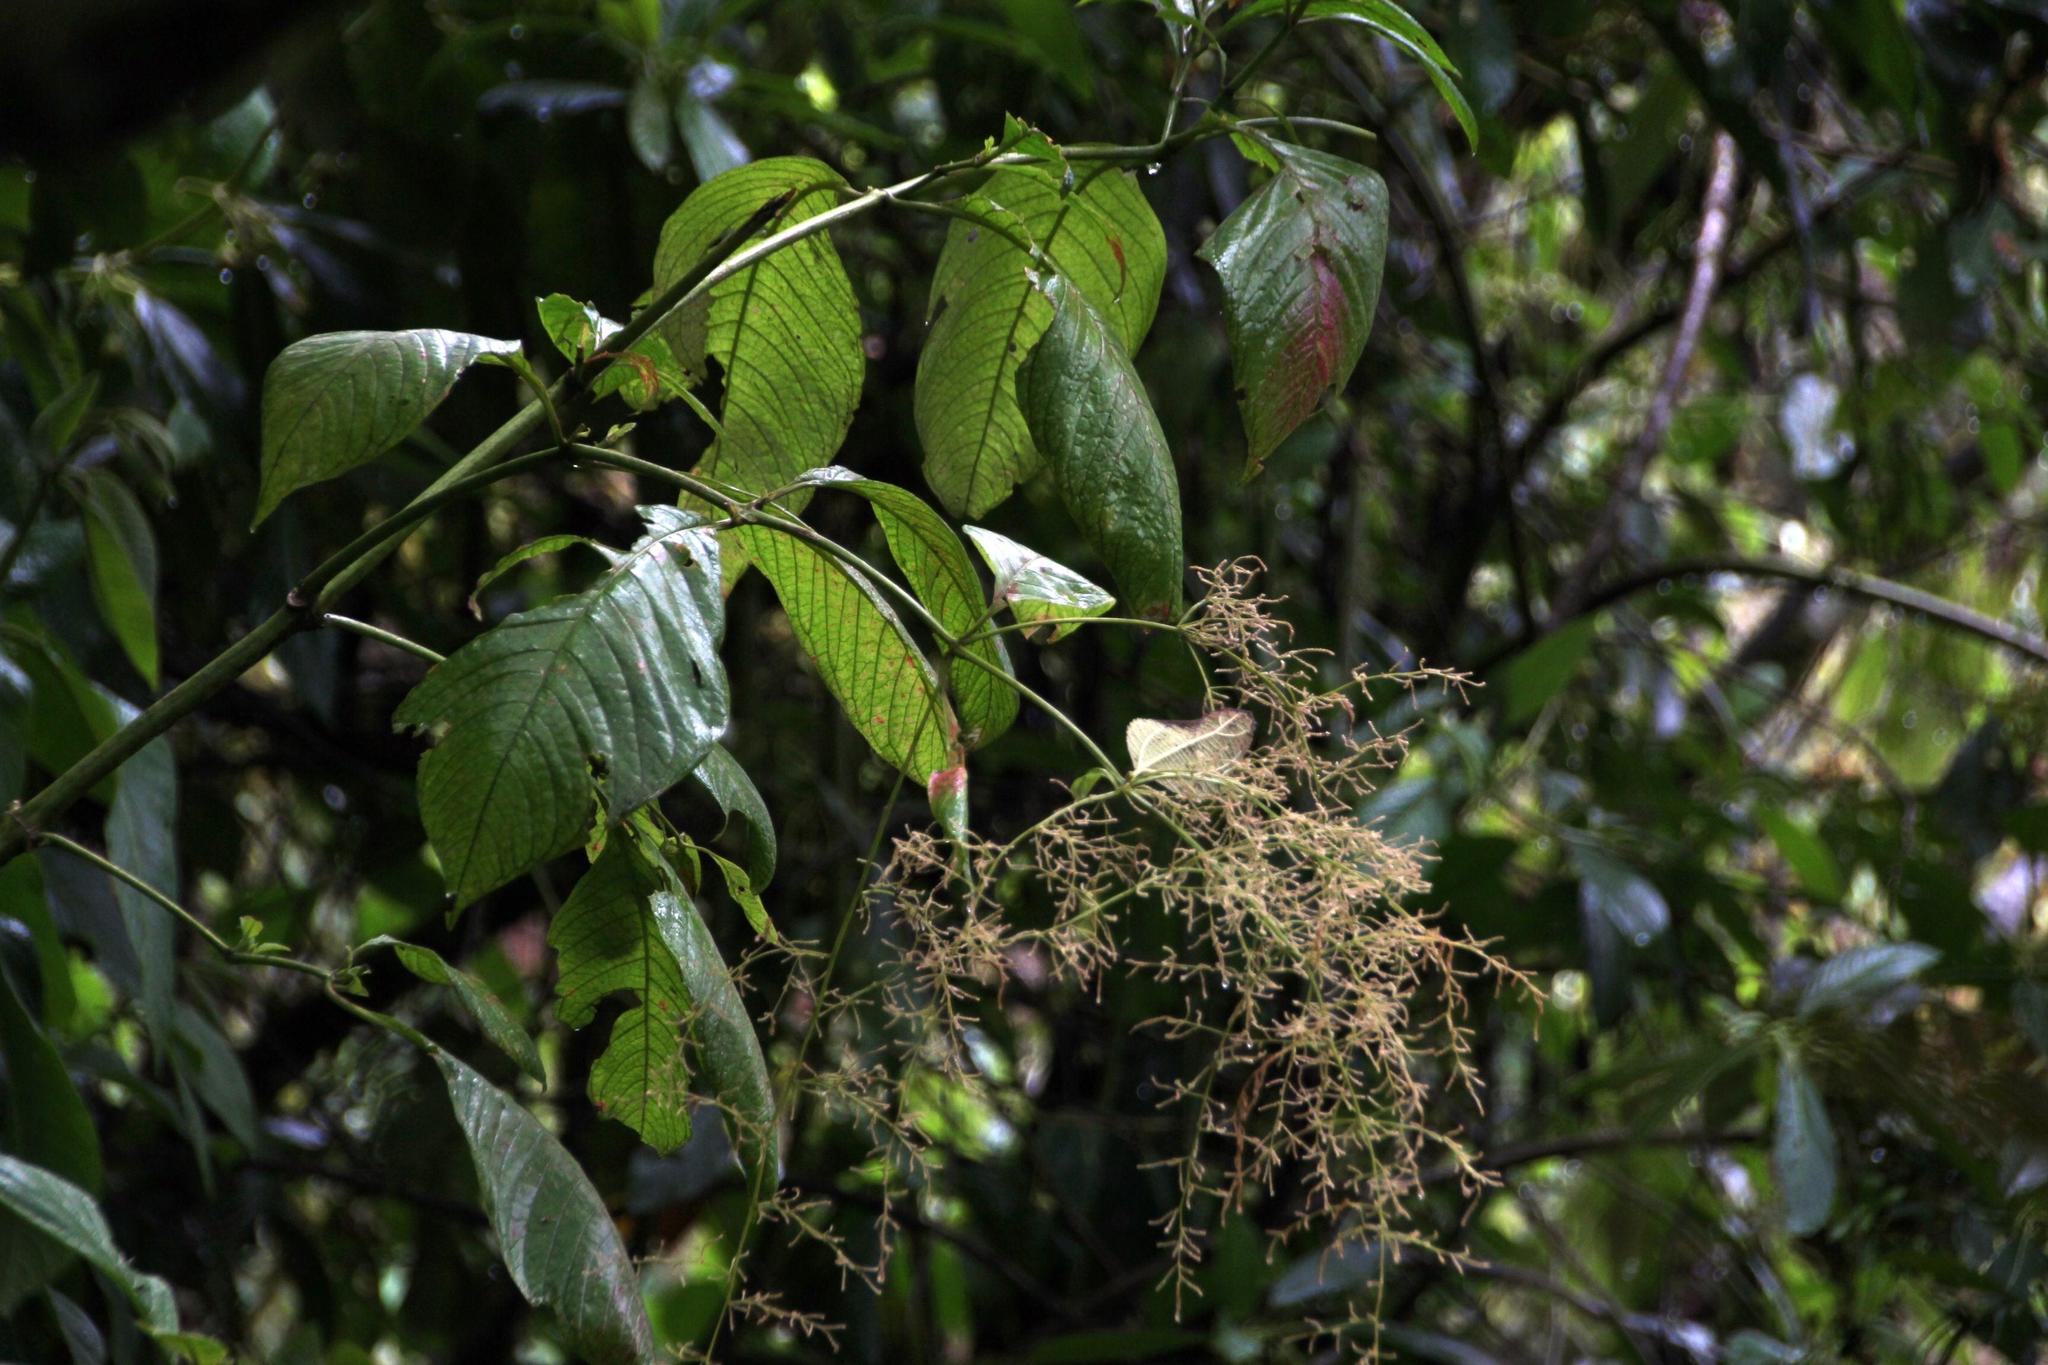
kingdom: Plantae
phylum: Tracheophyta
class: Magnoliopsida
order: Caryophyllales
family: Amaranthaceae
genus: Iresine
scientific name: Iresine diffusa
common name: Juba's-bush
